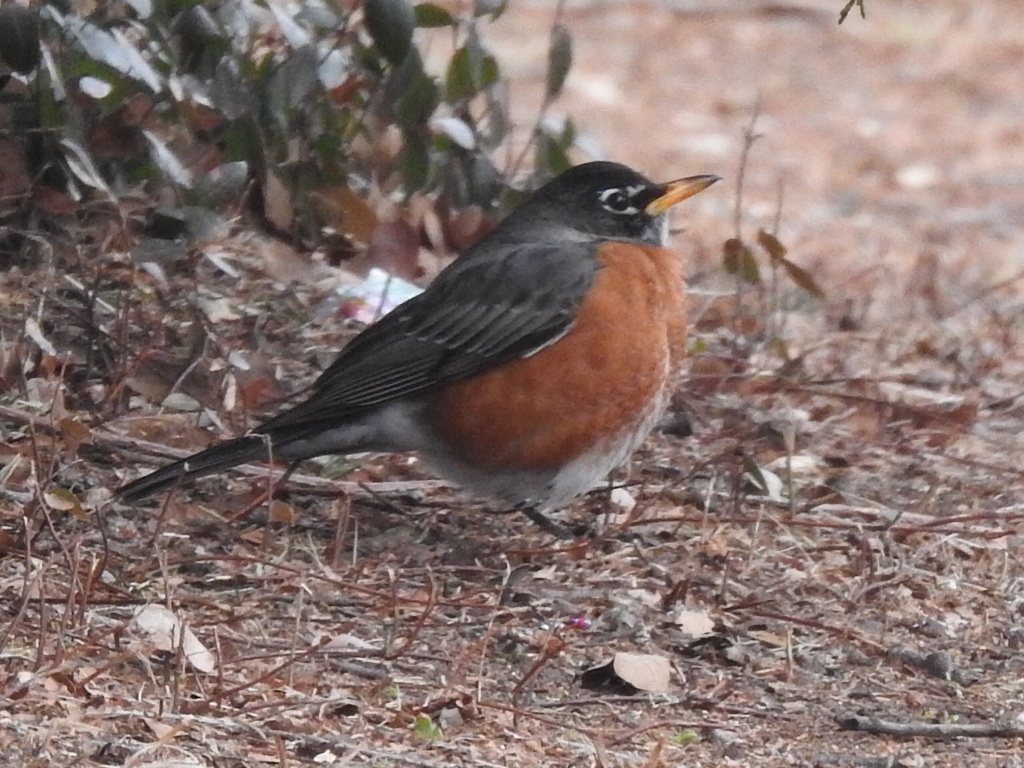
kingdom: Animalia
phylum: Chordata
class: Aves
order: Passeriformes
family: Turdidae
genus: Turdus
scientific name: Turdus migratorius
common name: American robin
